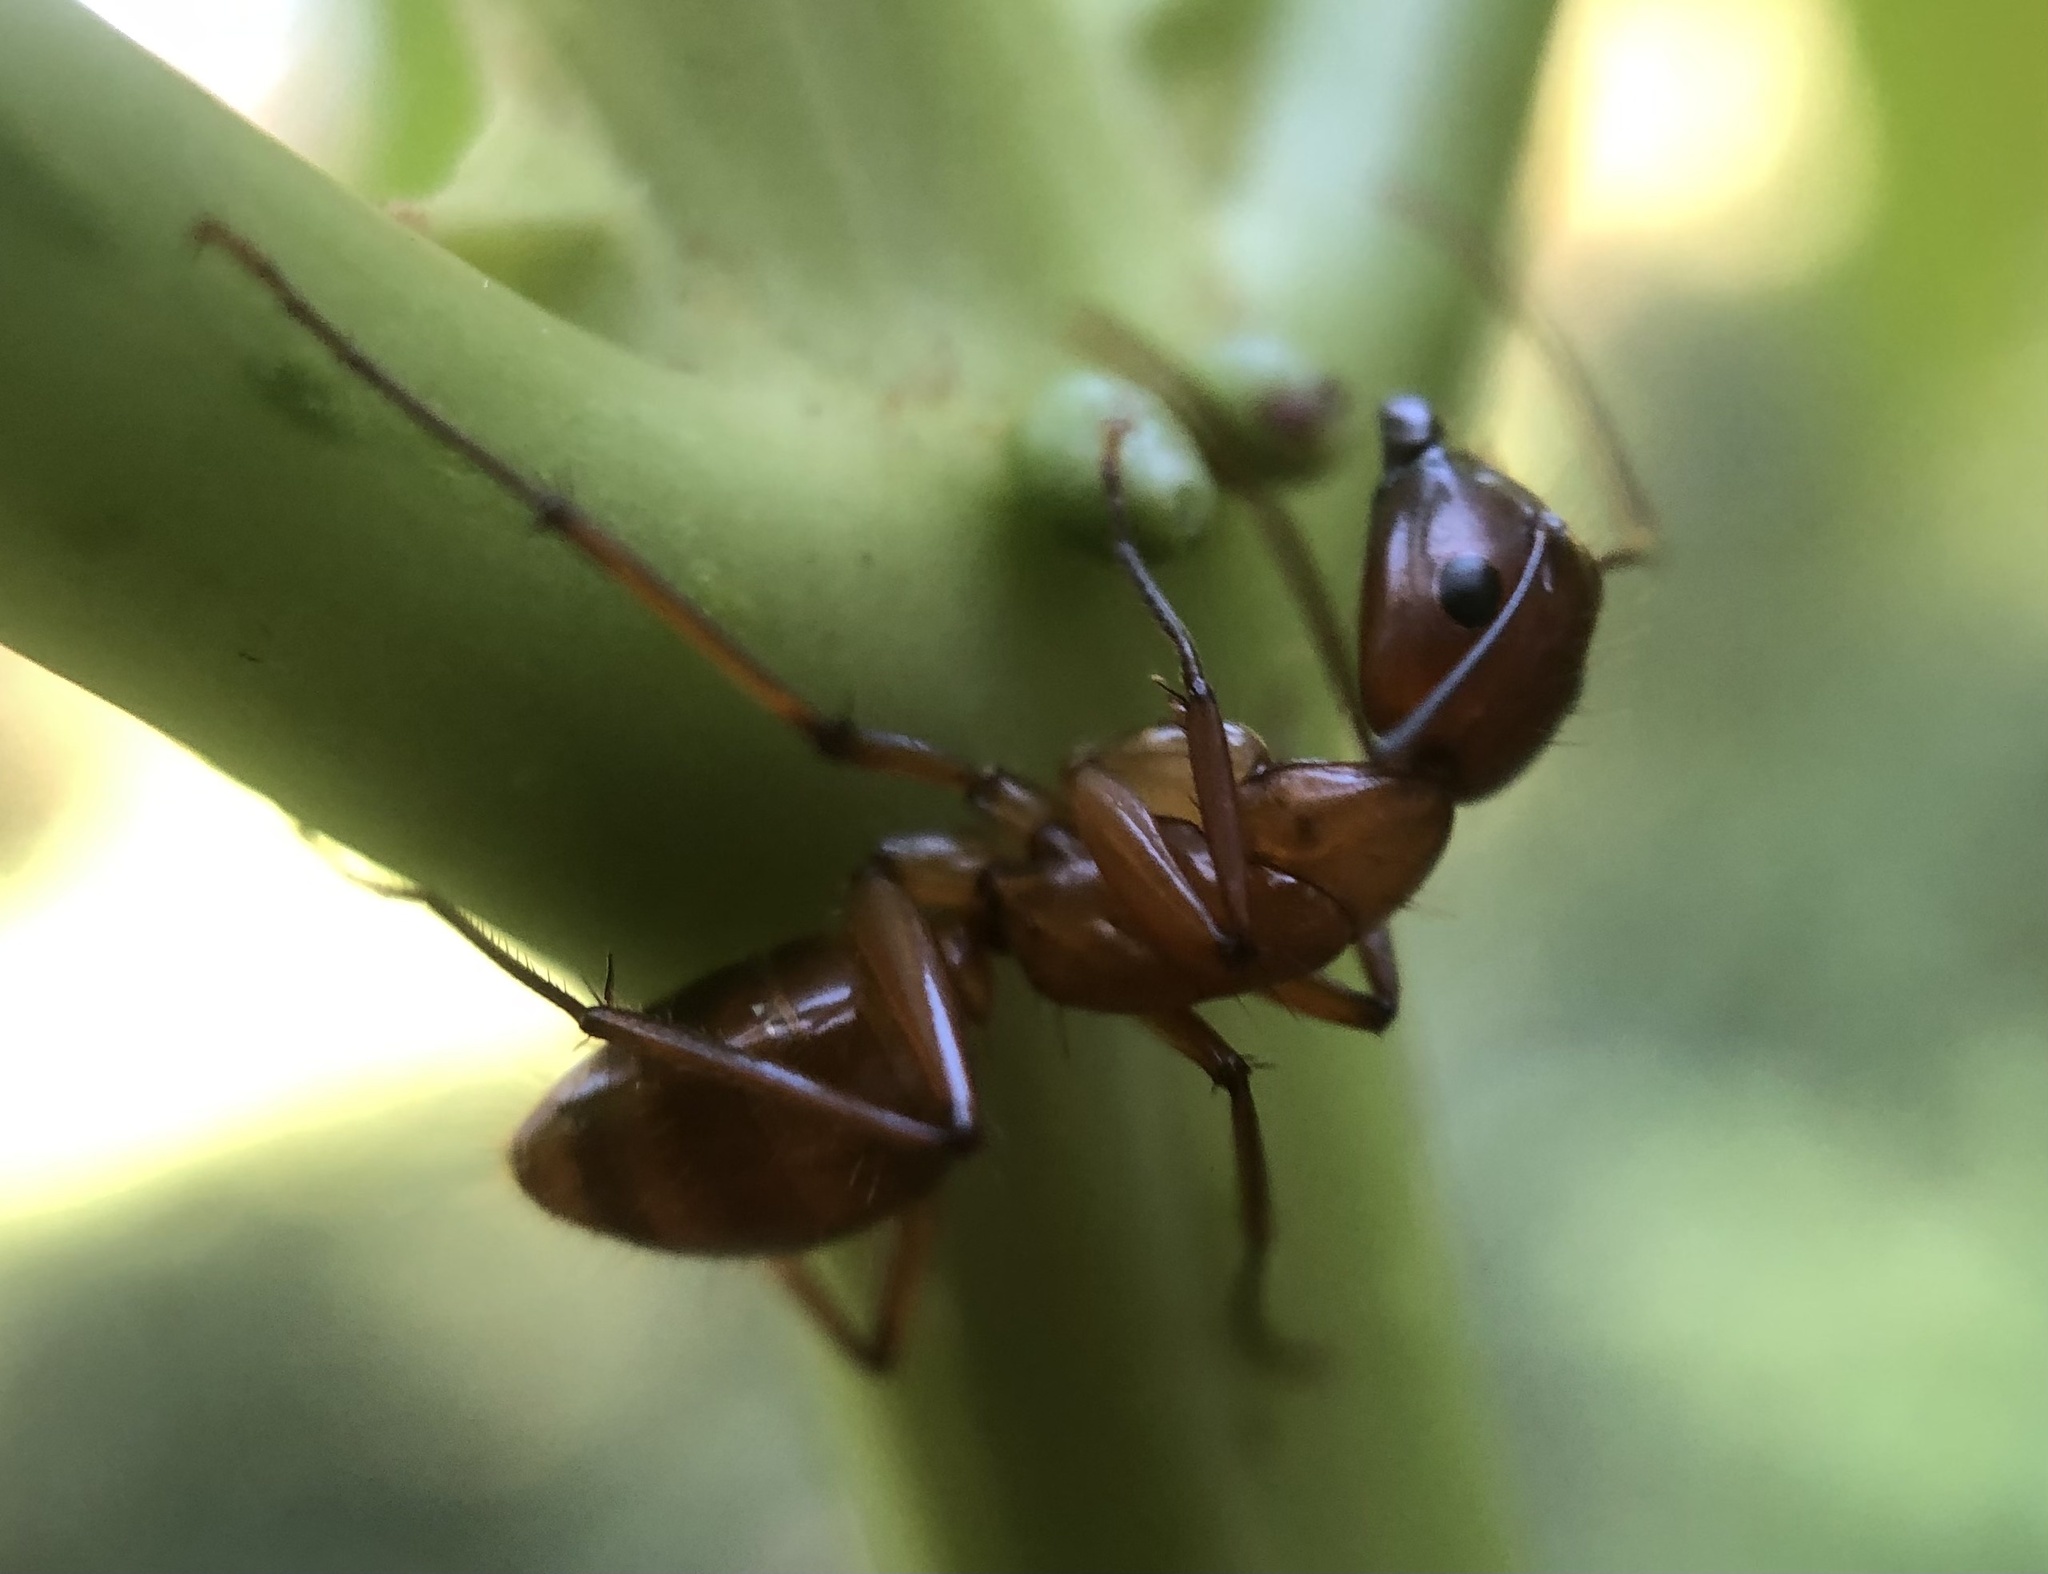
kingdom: Animalia
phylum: Arthropoda
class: Insecta
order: Hymenoptera
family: Formicidae
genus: Camponotus
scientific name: Camponotus castaneus
